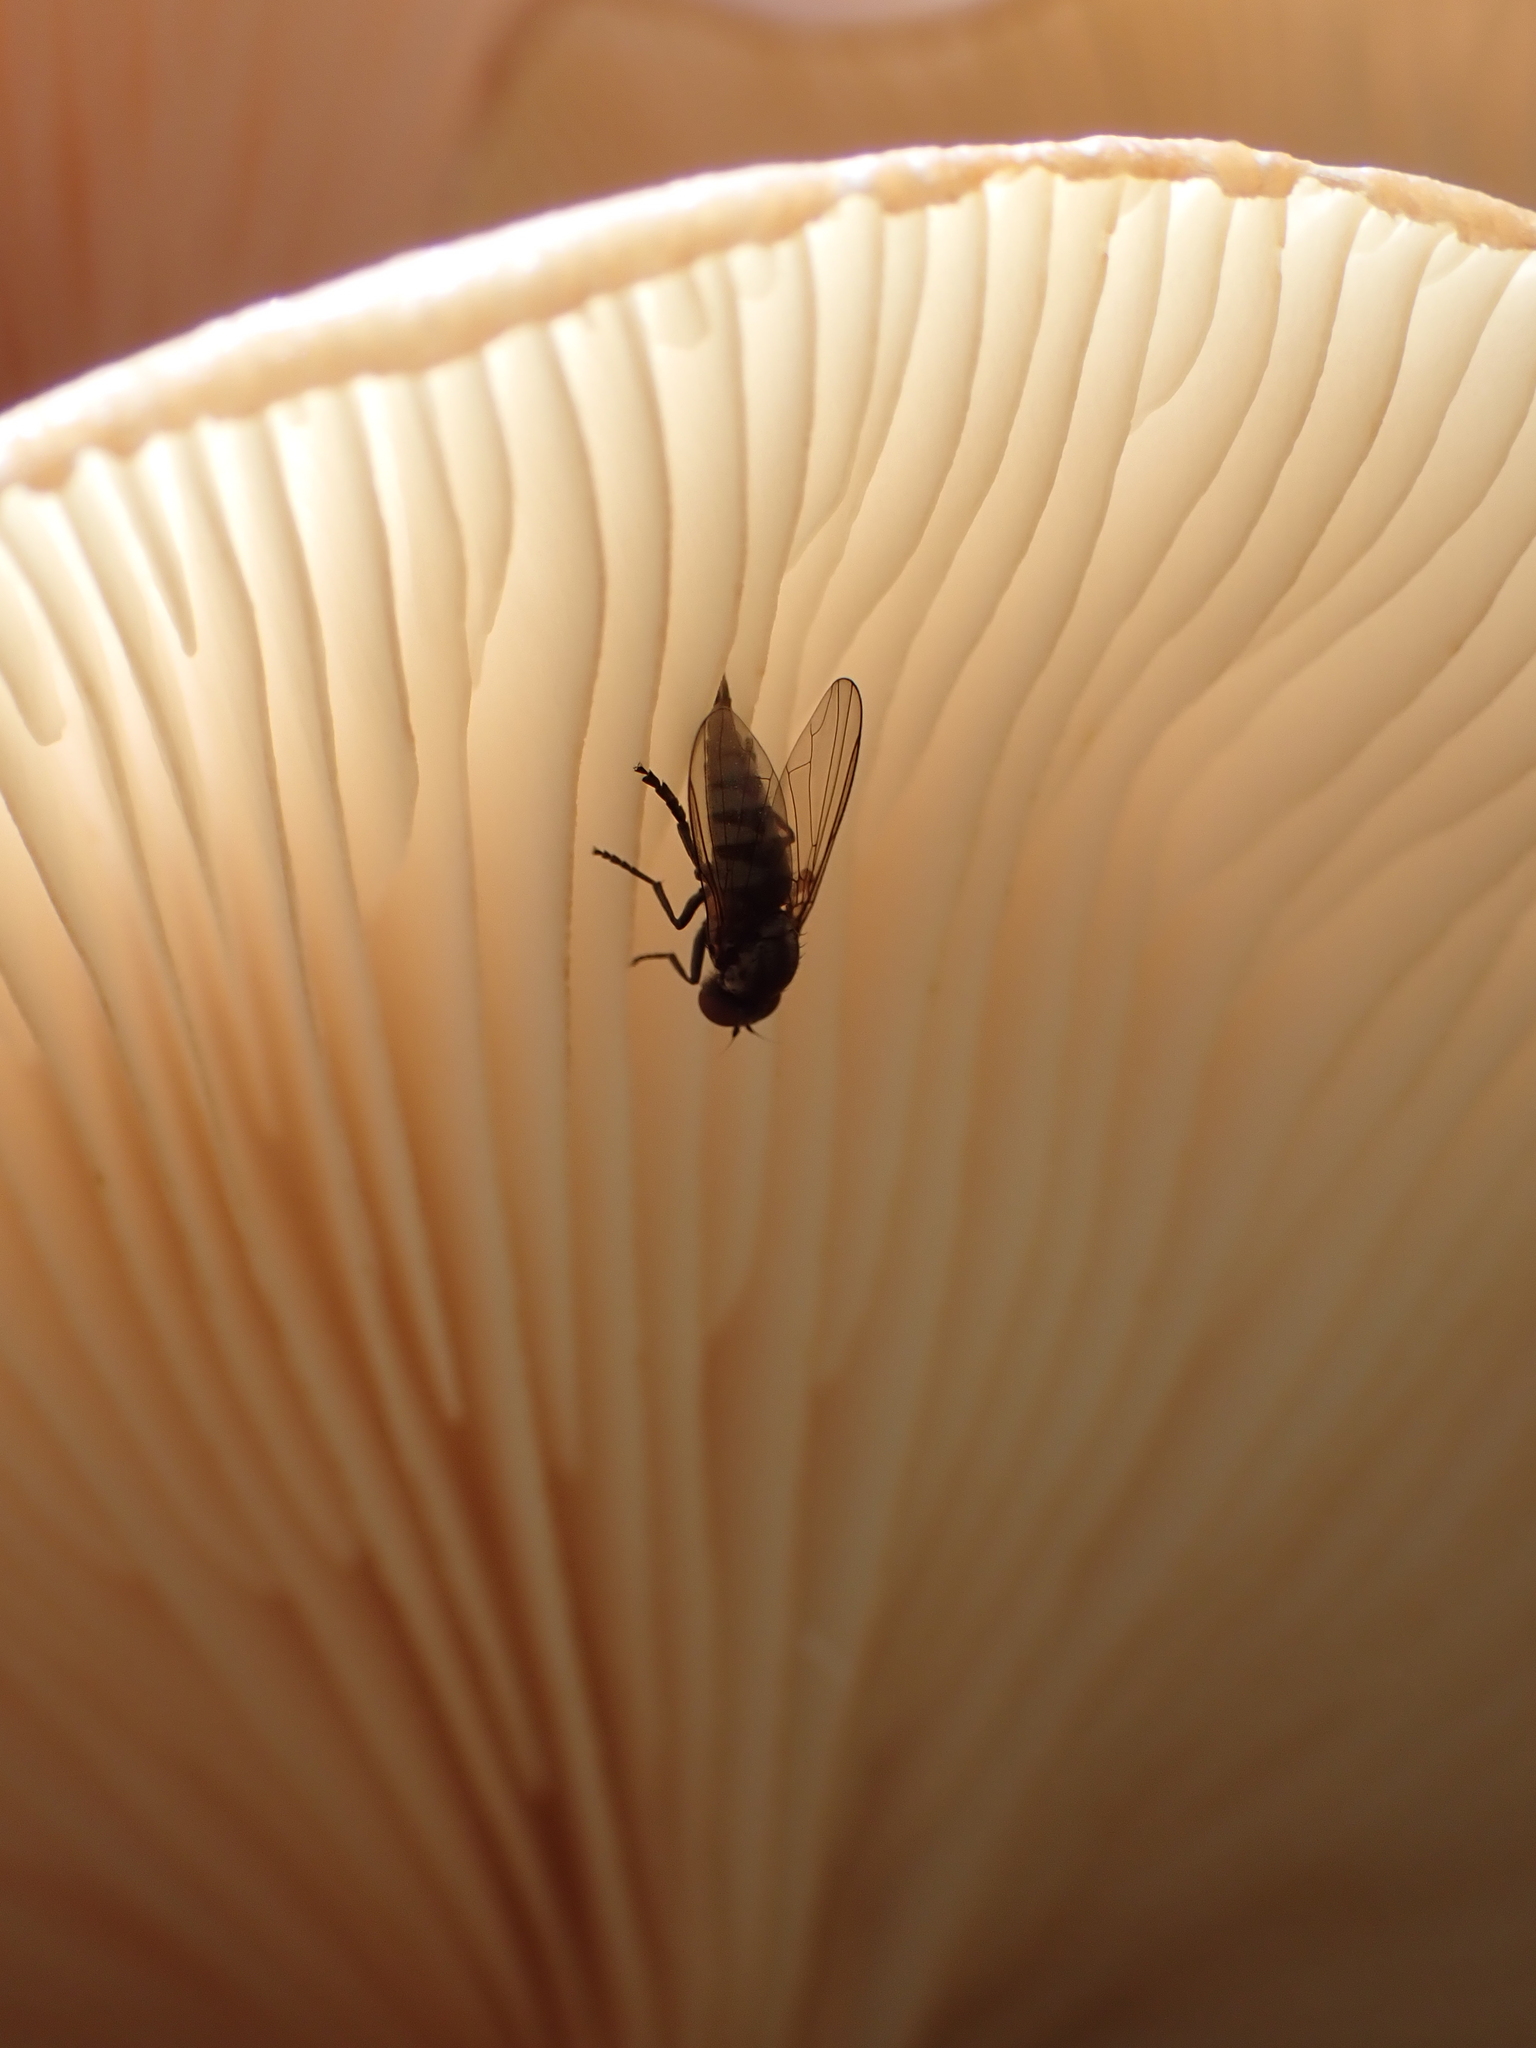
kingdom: Animalia
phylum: Arthropoda
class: Insecta
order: Diptera
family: Platypezidae
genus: Platypeza
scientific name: Platypeza consobrina
